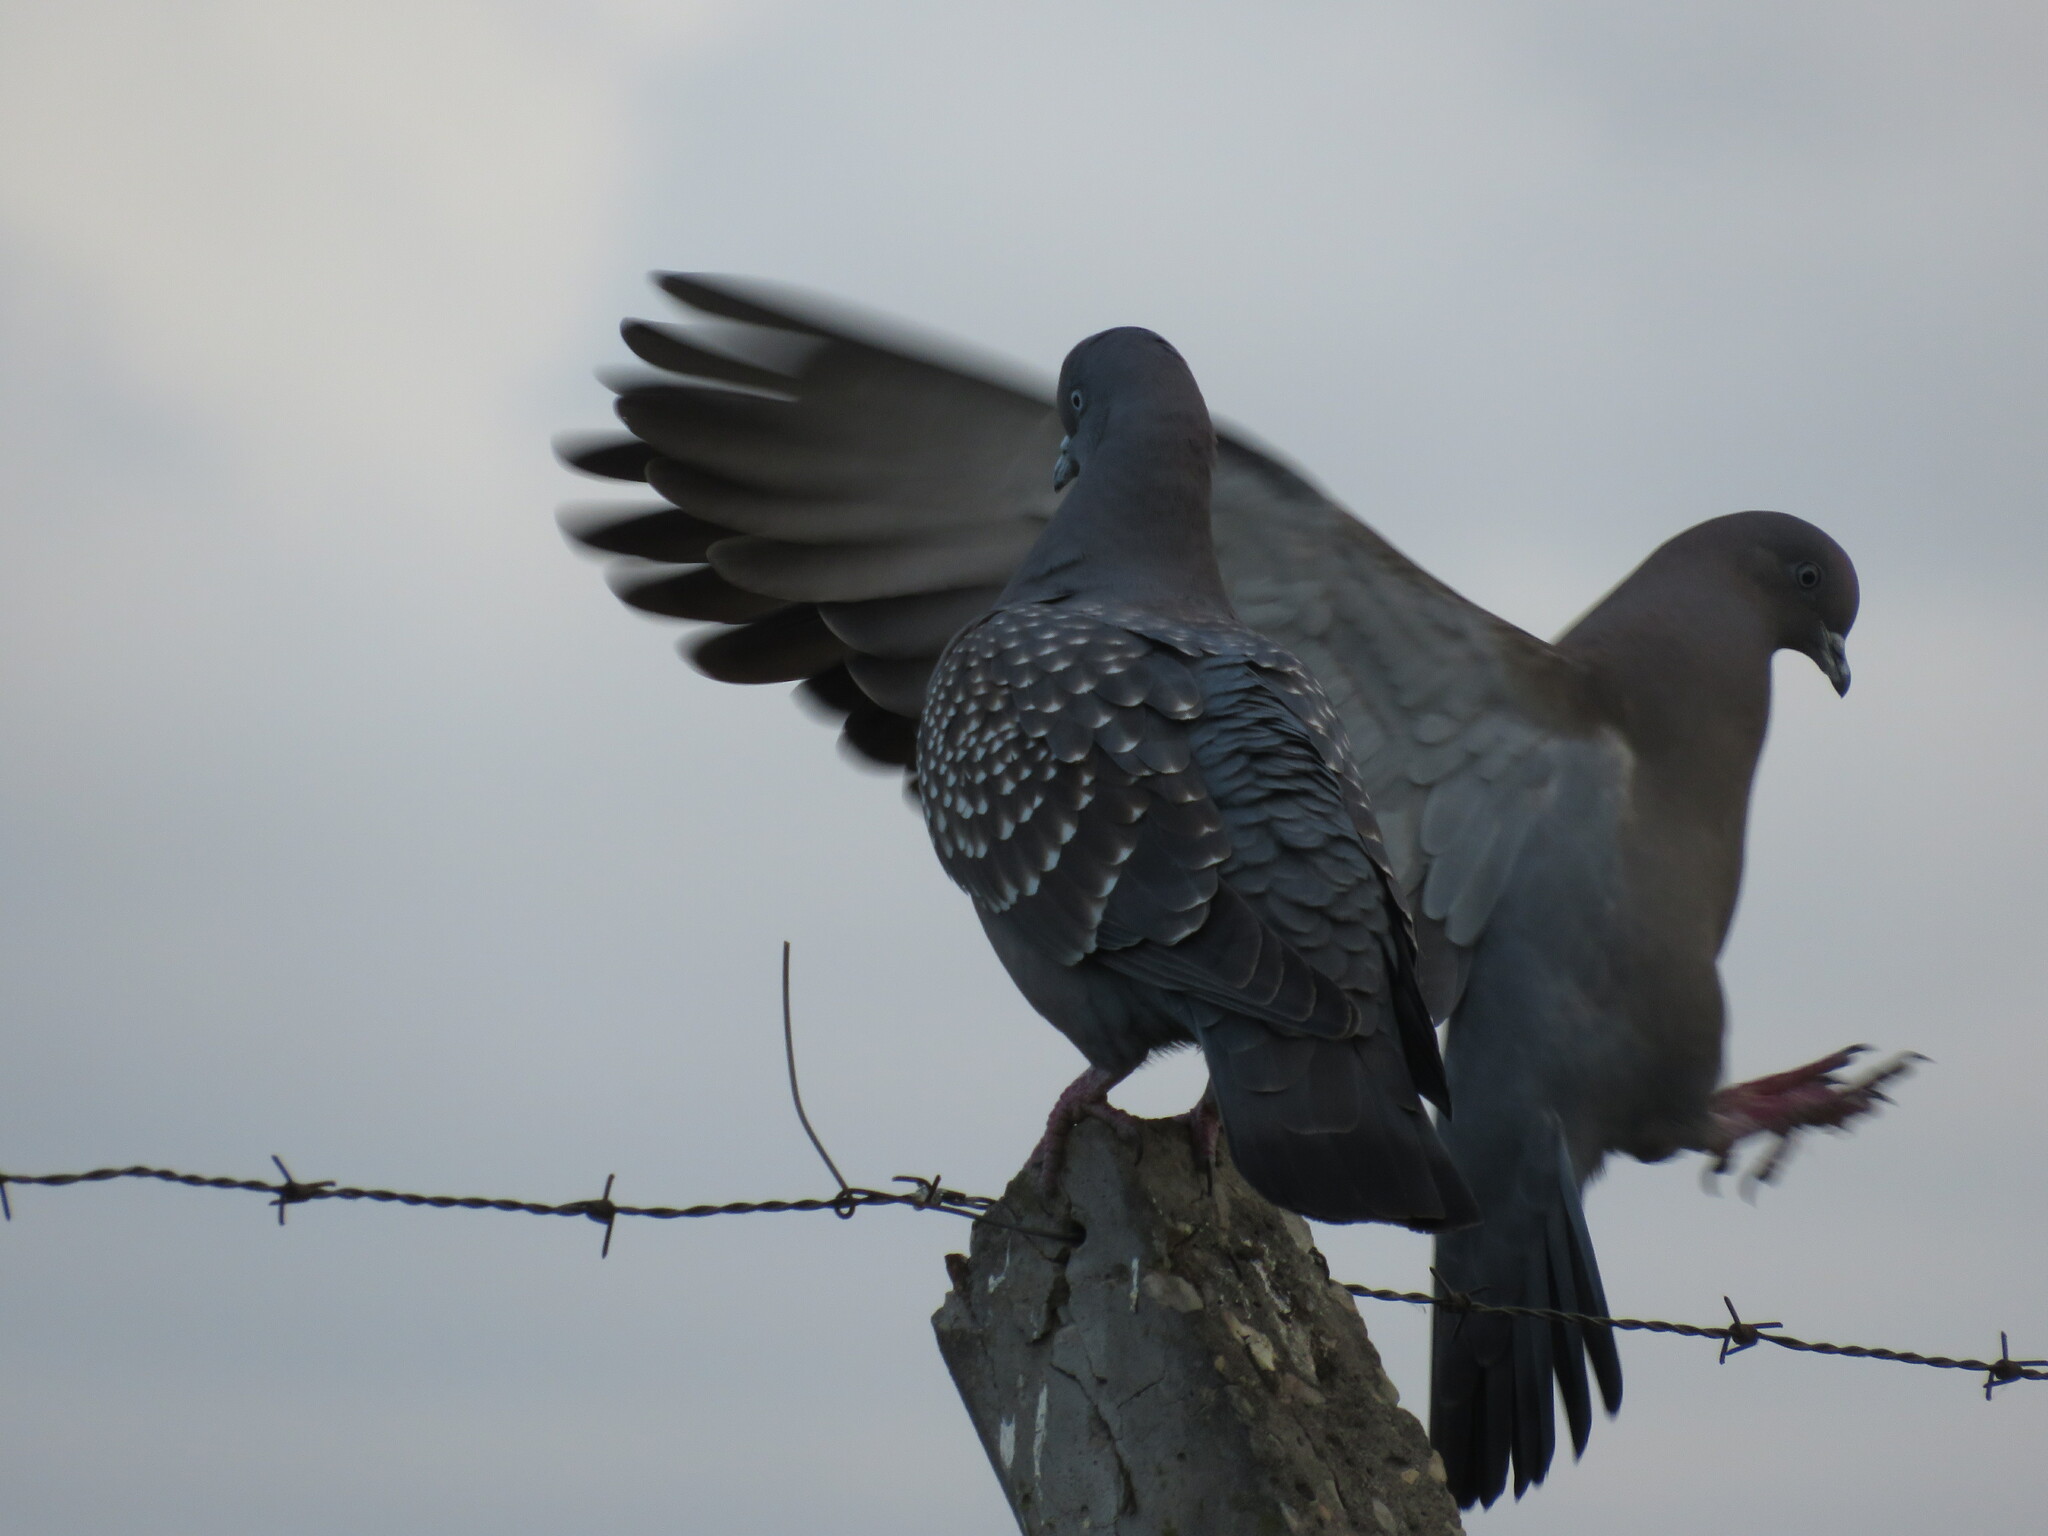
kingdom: Animalia
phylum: Chordata
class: Aves
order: Columbiformes
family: Columbidae
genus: Patagioenas
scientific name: Patagioenas maculosa
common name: Spot-winged pigeon
